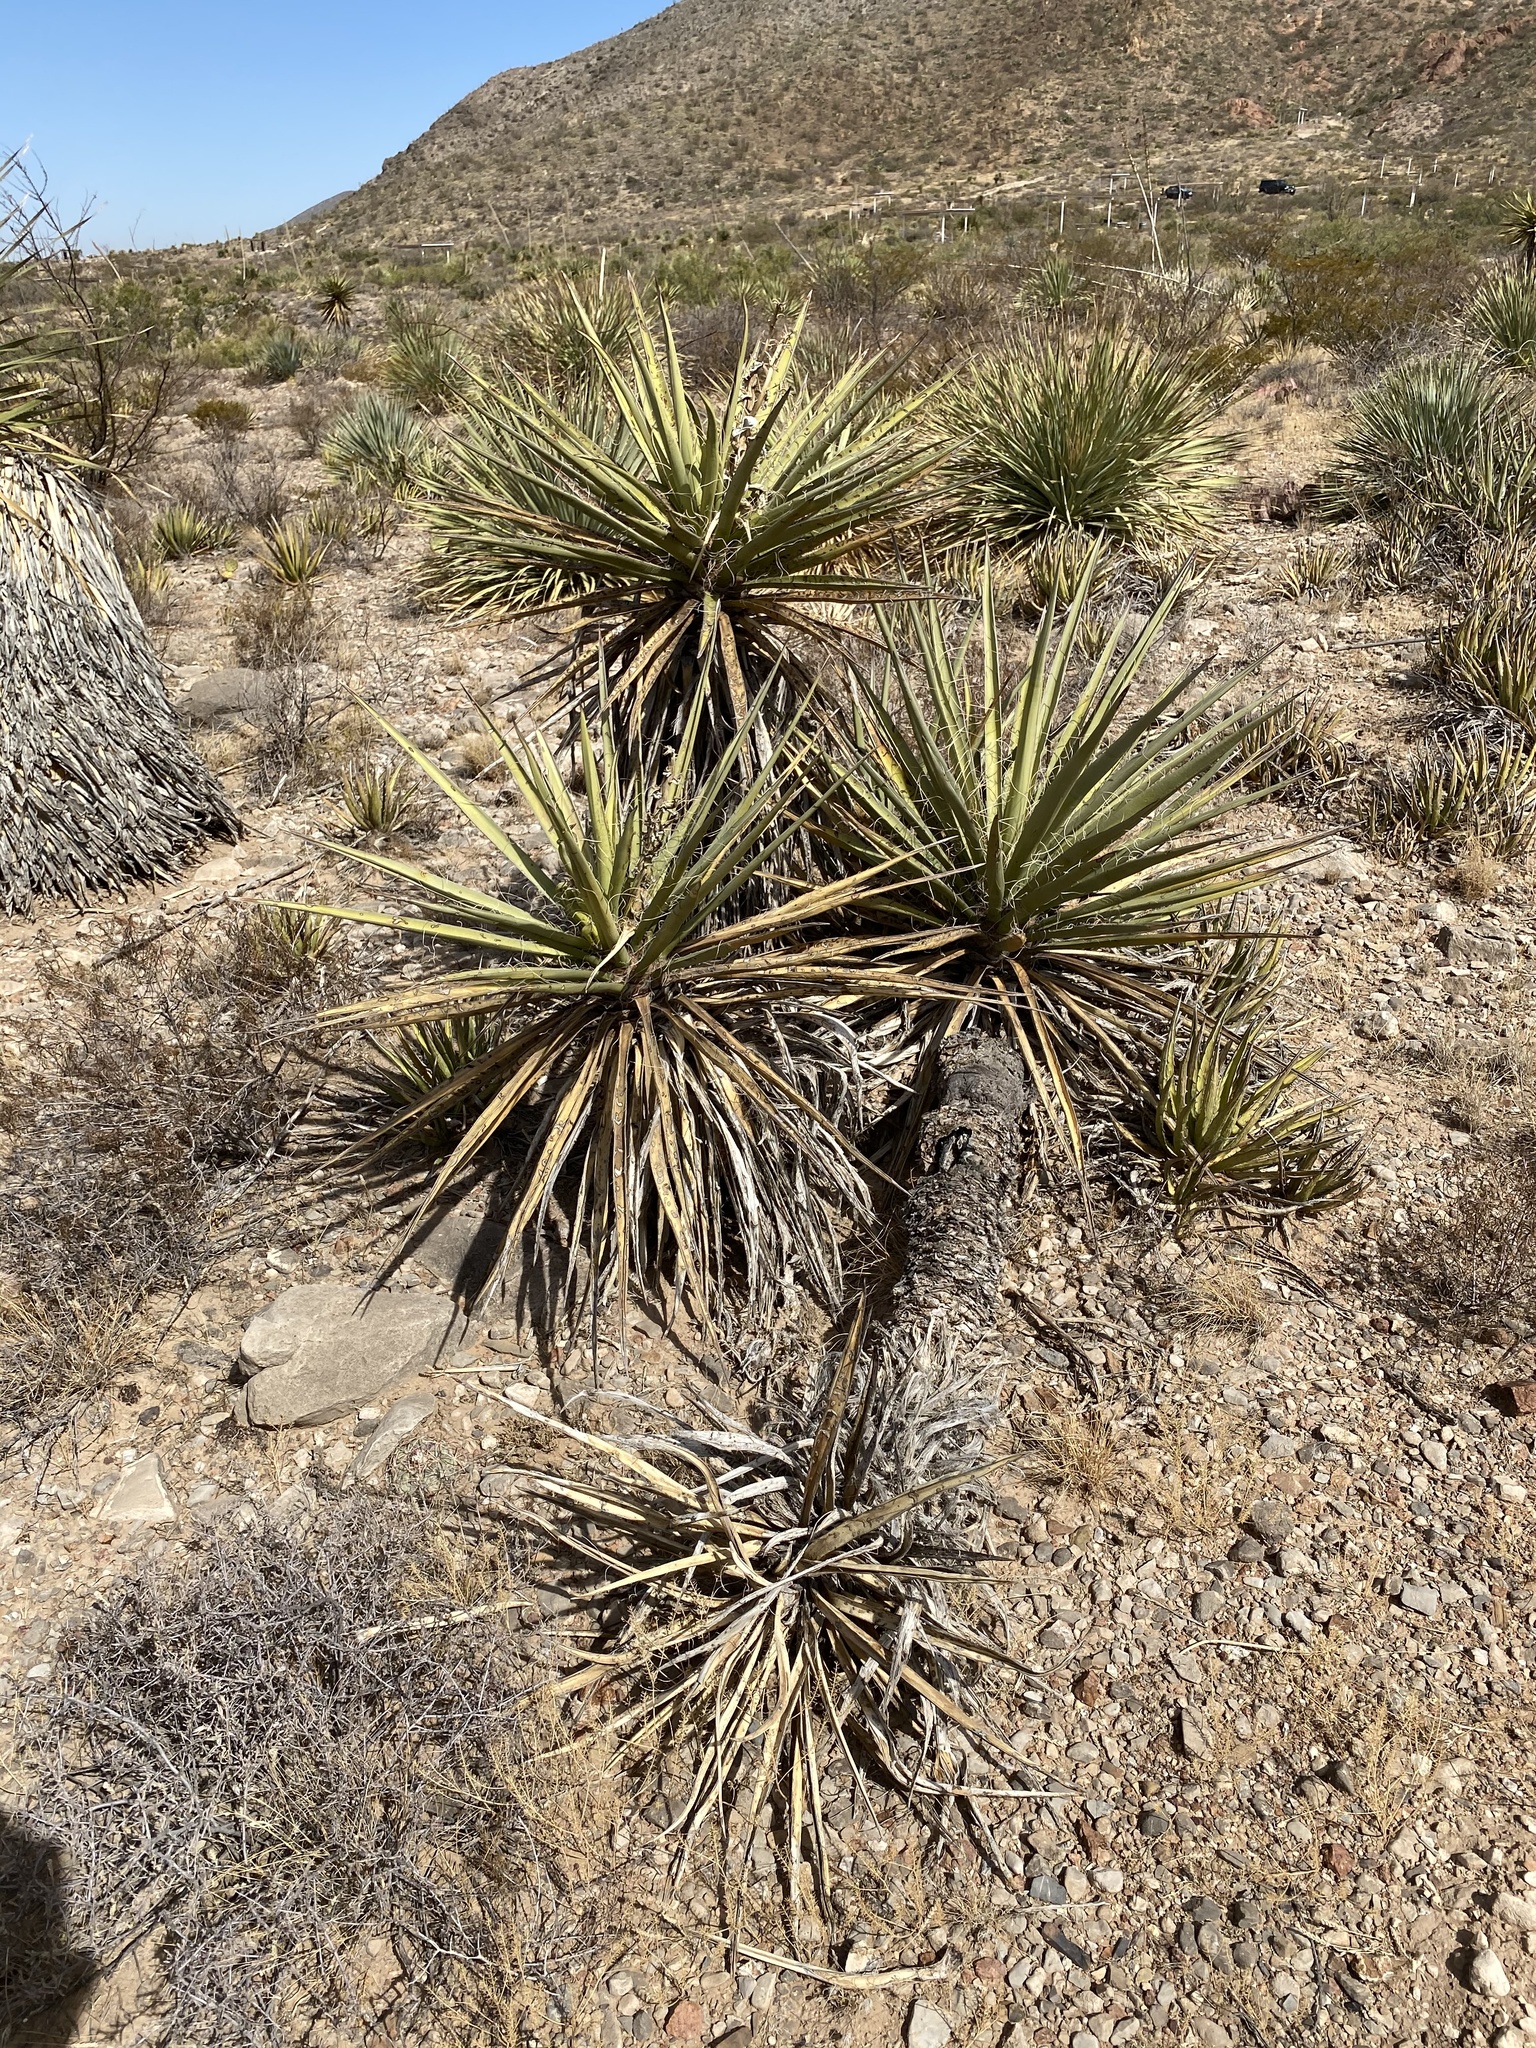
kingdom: Plantae
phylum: Tracheophyta
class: Liliopsida
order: Asparagales
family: Asparagaceae
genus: Yucca
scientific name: Yucca treculiana
